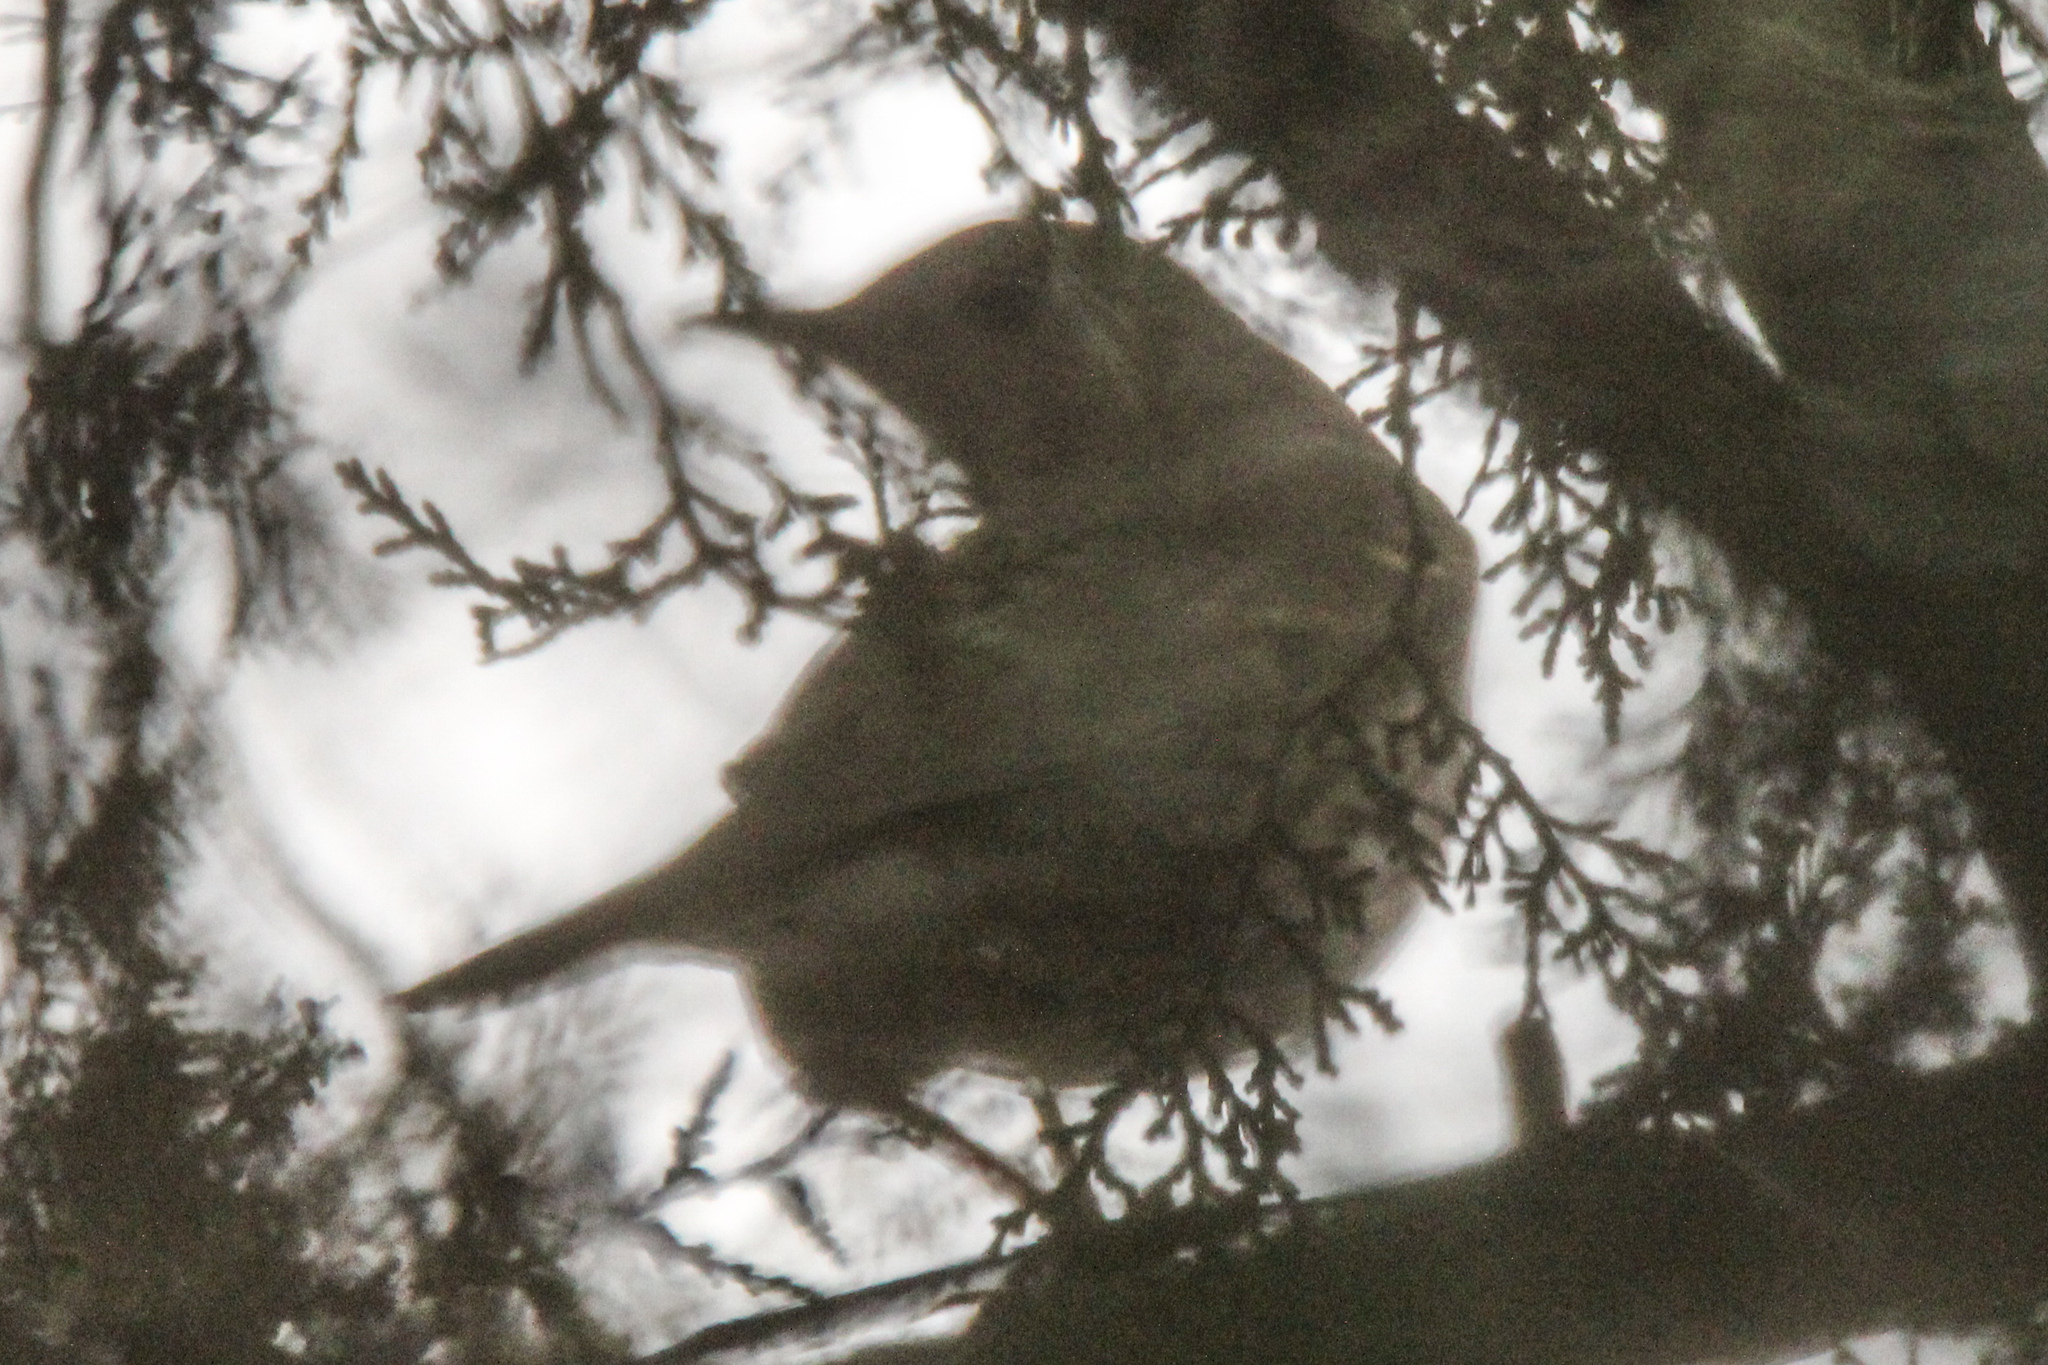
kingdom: Animalia
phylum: Chordata
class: Aves
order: Passeriformes
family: Turdidae
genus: Turdus
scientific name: Turdus philomelos
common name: Song thrush
